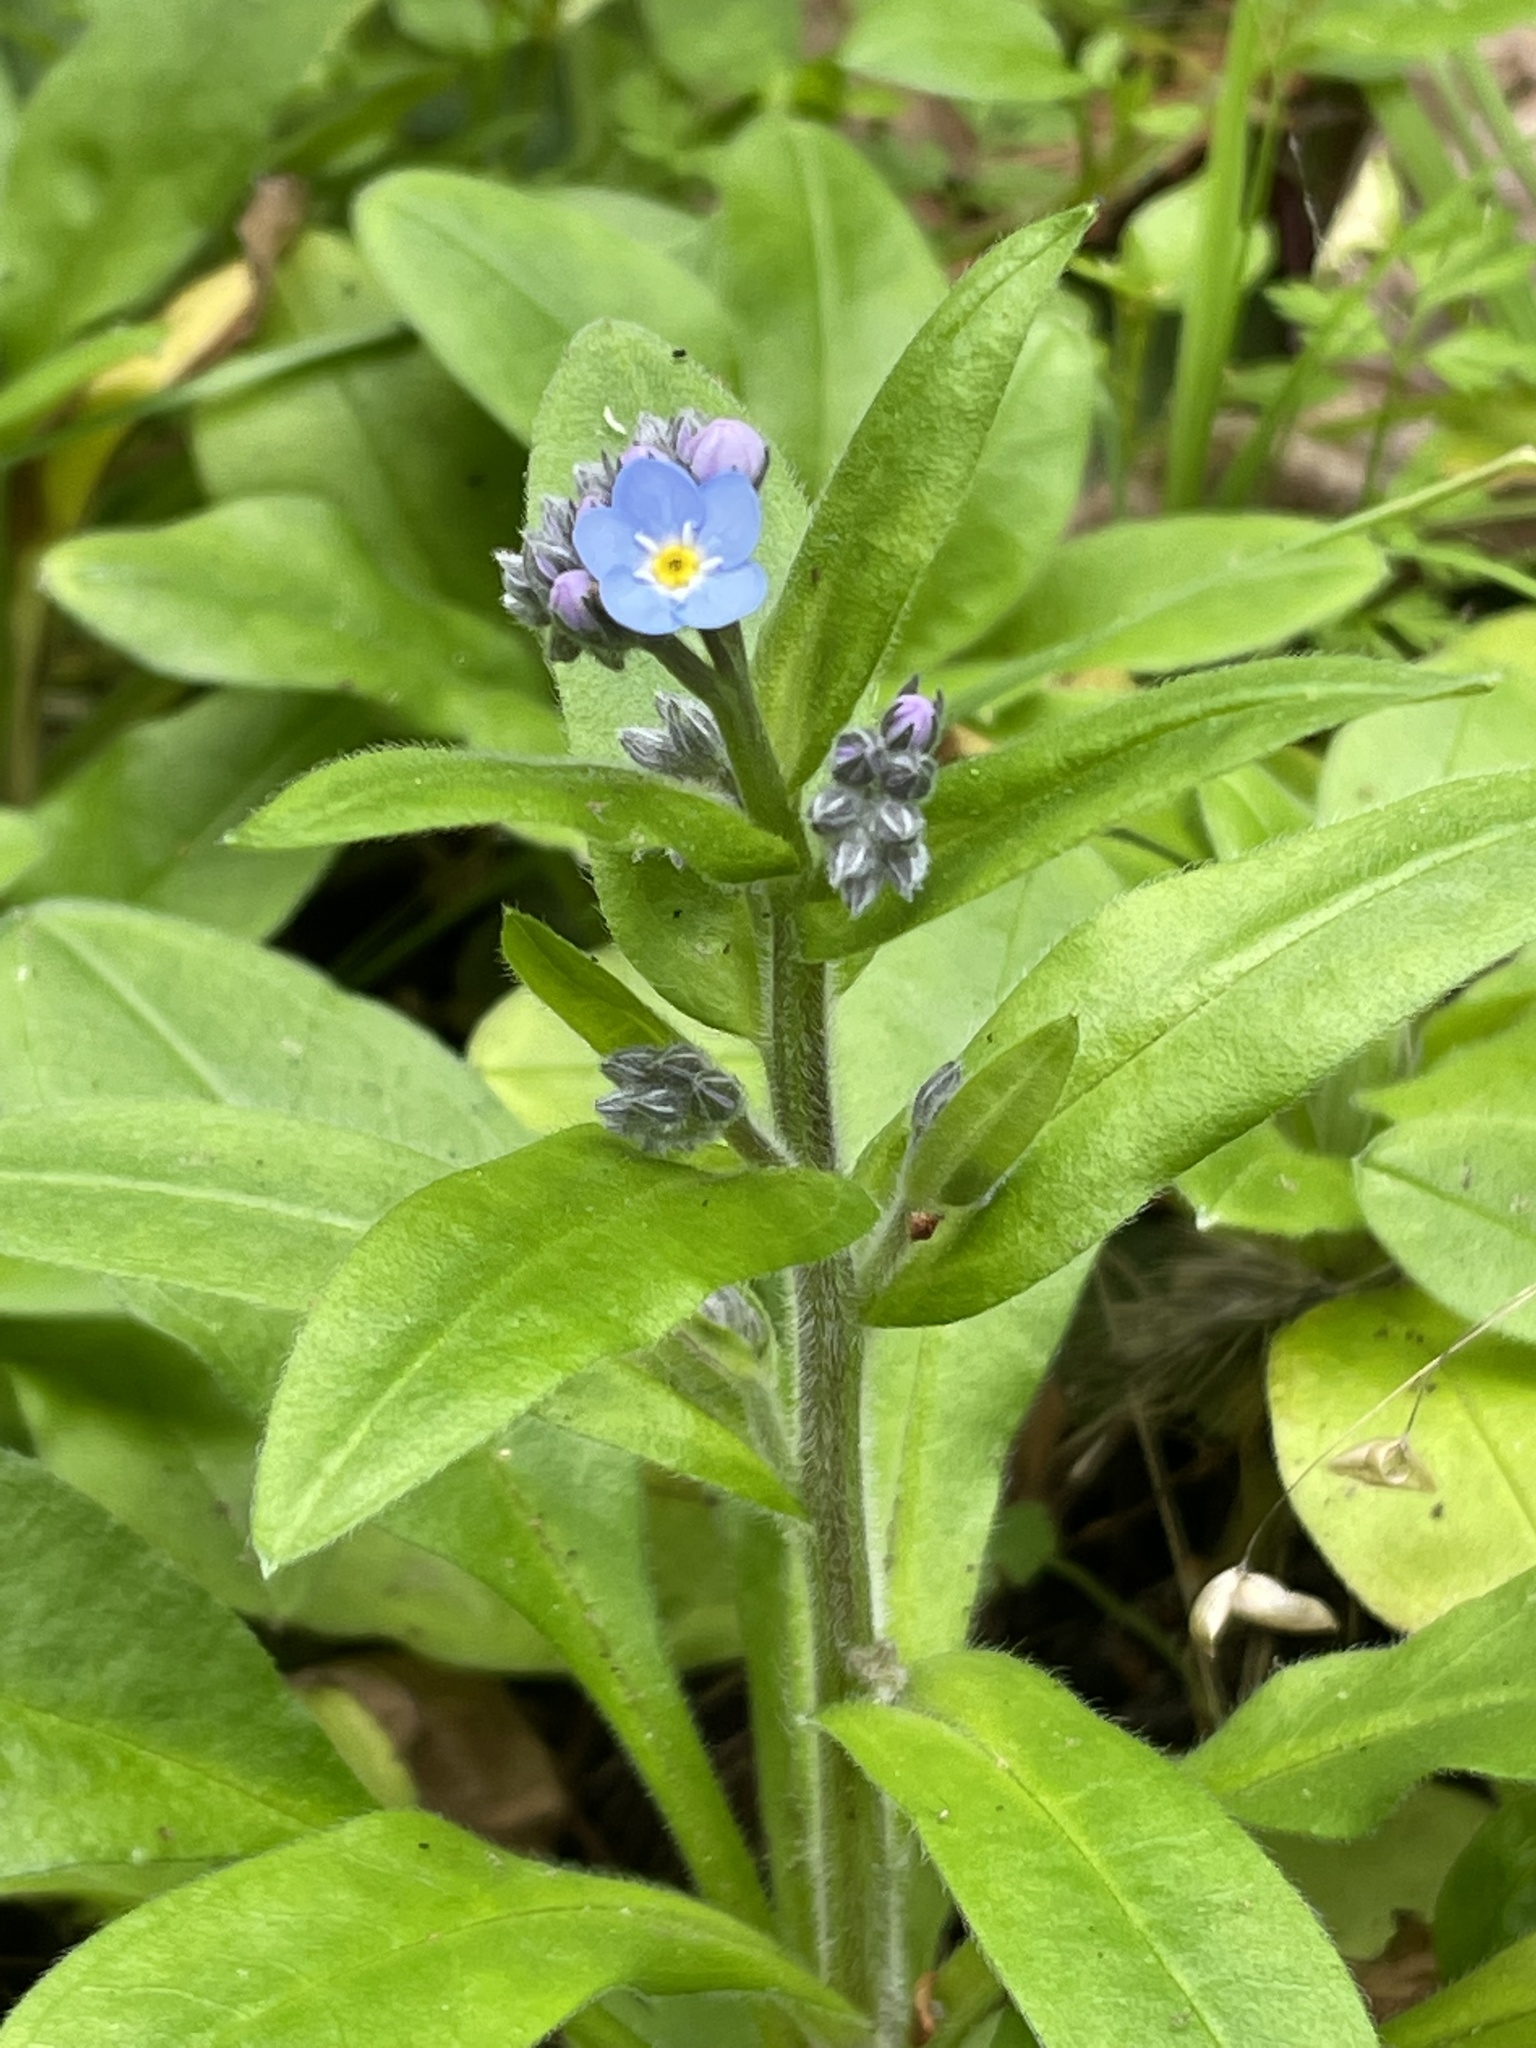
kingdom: Plantae
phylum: Tracheophyta
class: Magnoliopsida
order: Boraginales
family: Boraginaceae
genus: Myosotis
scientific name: Myosotis latifolia
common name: Broadleaf forget-me-not
